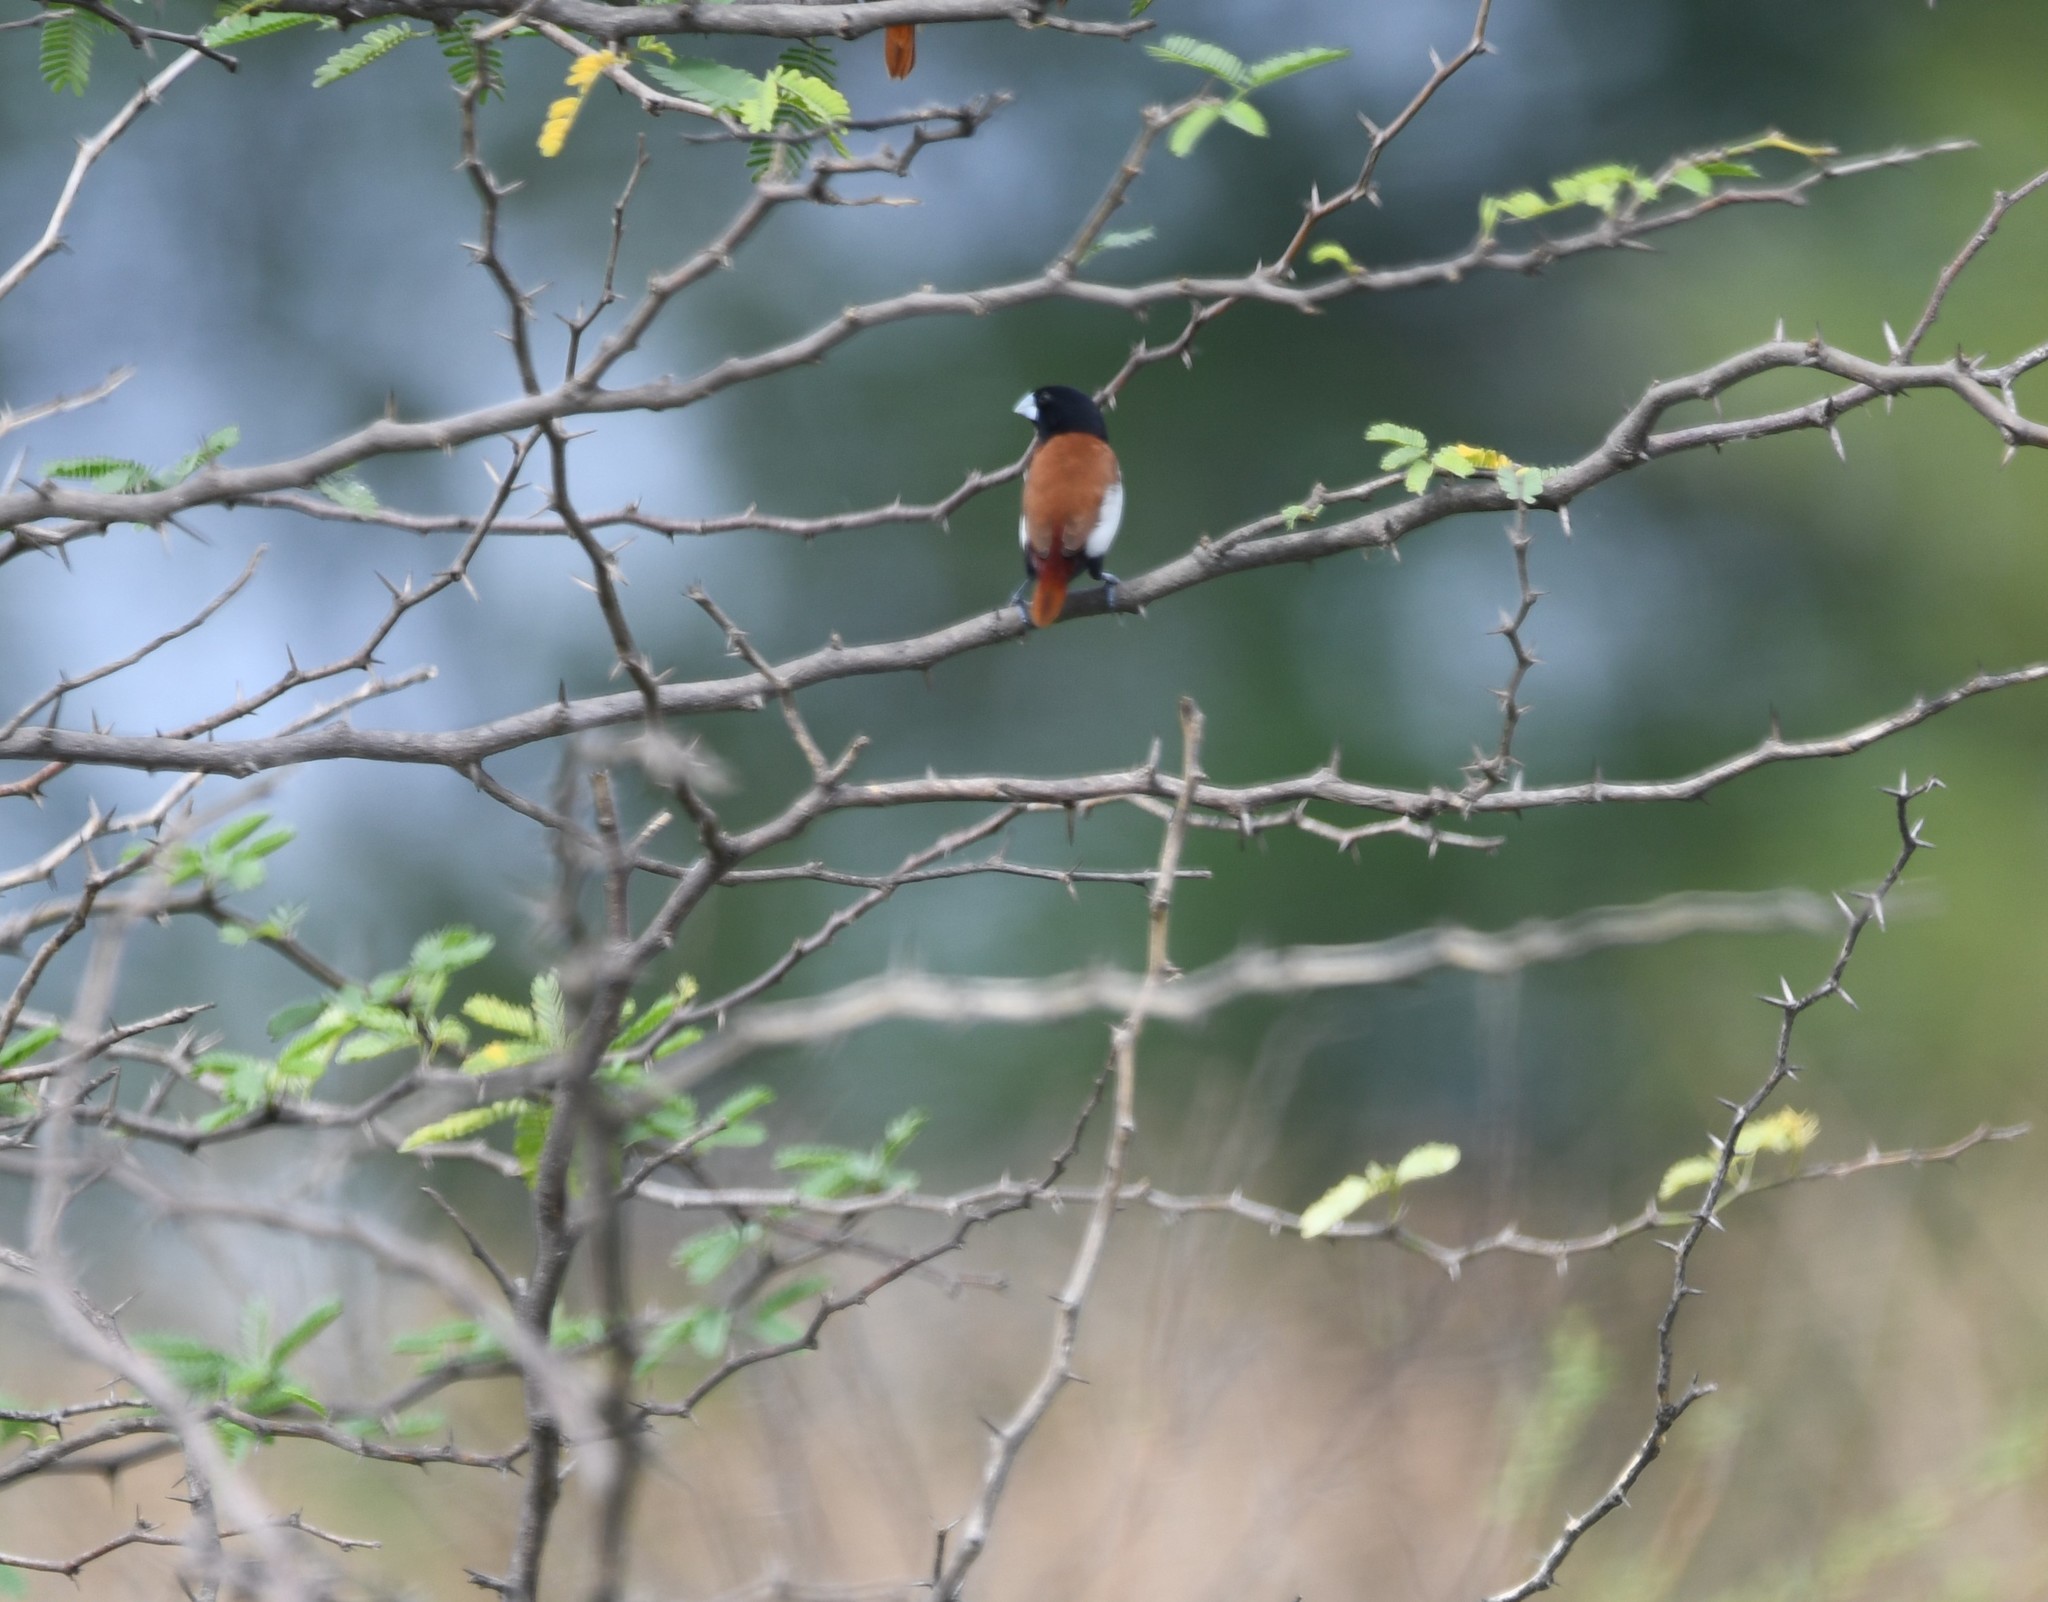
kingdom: Animalia
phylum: Chordata
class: Aves
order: Passeriformes
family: Estrildidae
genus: Lonchura
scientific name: Lonchura malacca
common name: Tricolored munia
